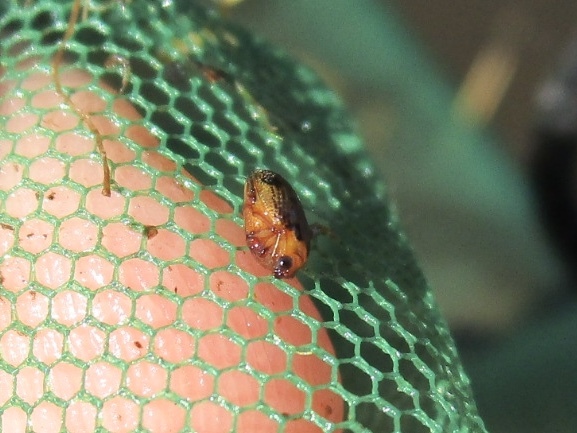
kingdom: Animalia
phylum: Arthropoda
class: Insecta
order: Coleoptera
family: Haliplidae
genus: Peltodytes
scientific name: Peltodytes
